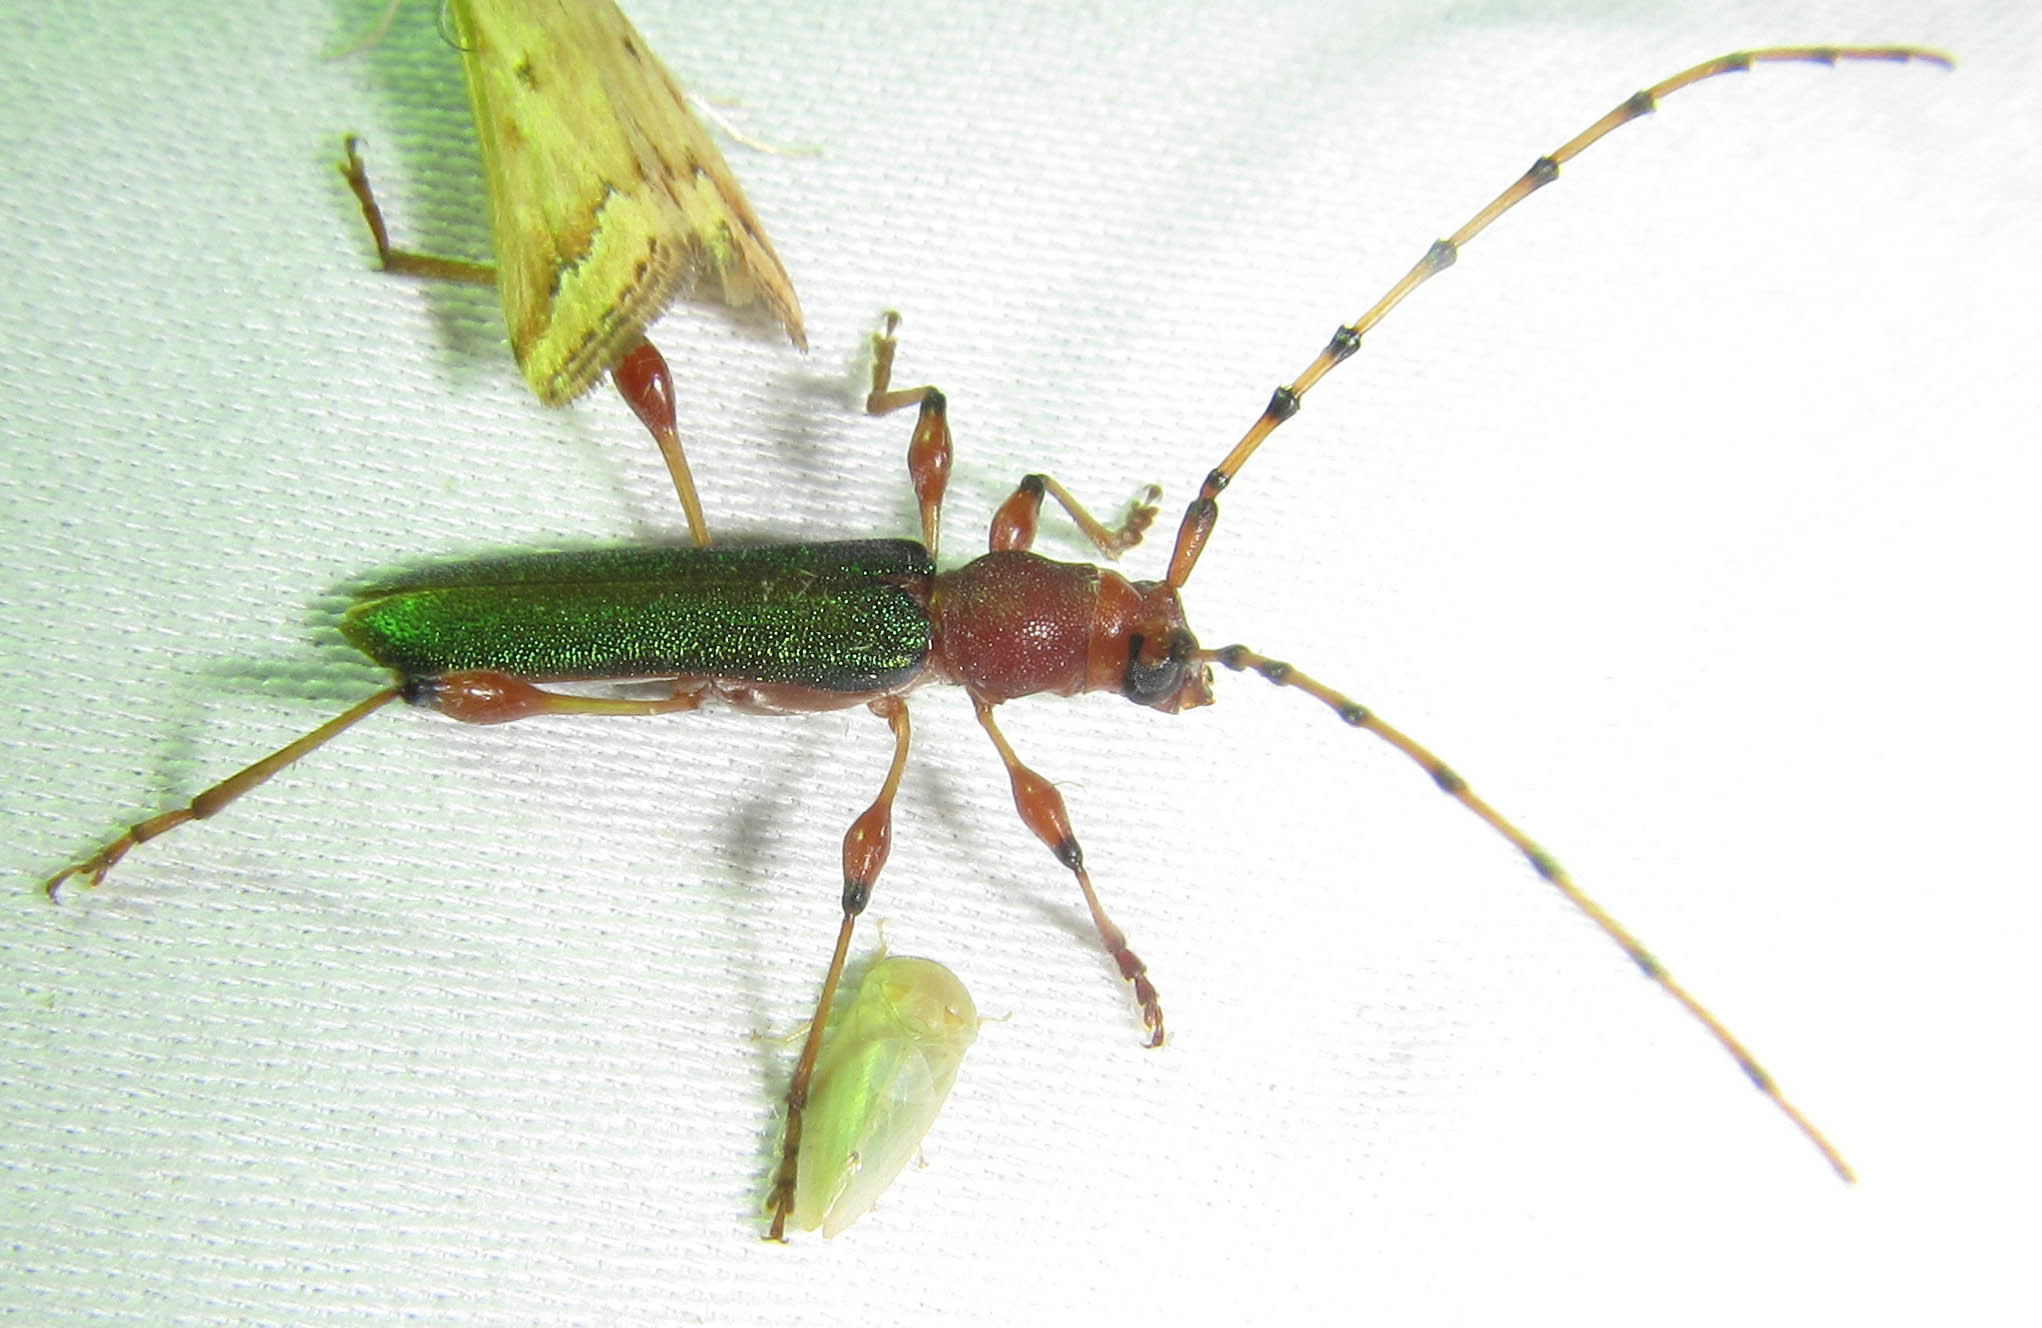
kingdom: Animalia
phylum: Arthropoda
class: Insecta
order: Coleoptera
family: Cerambycidae
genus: Cordylomera
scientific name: Cordylomera annulicornis
